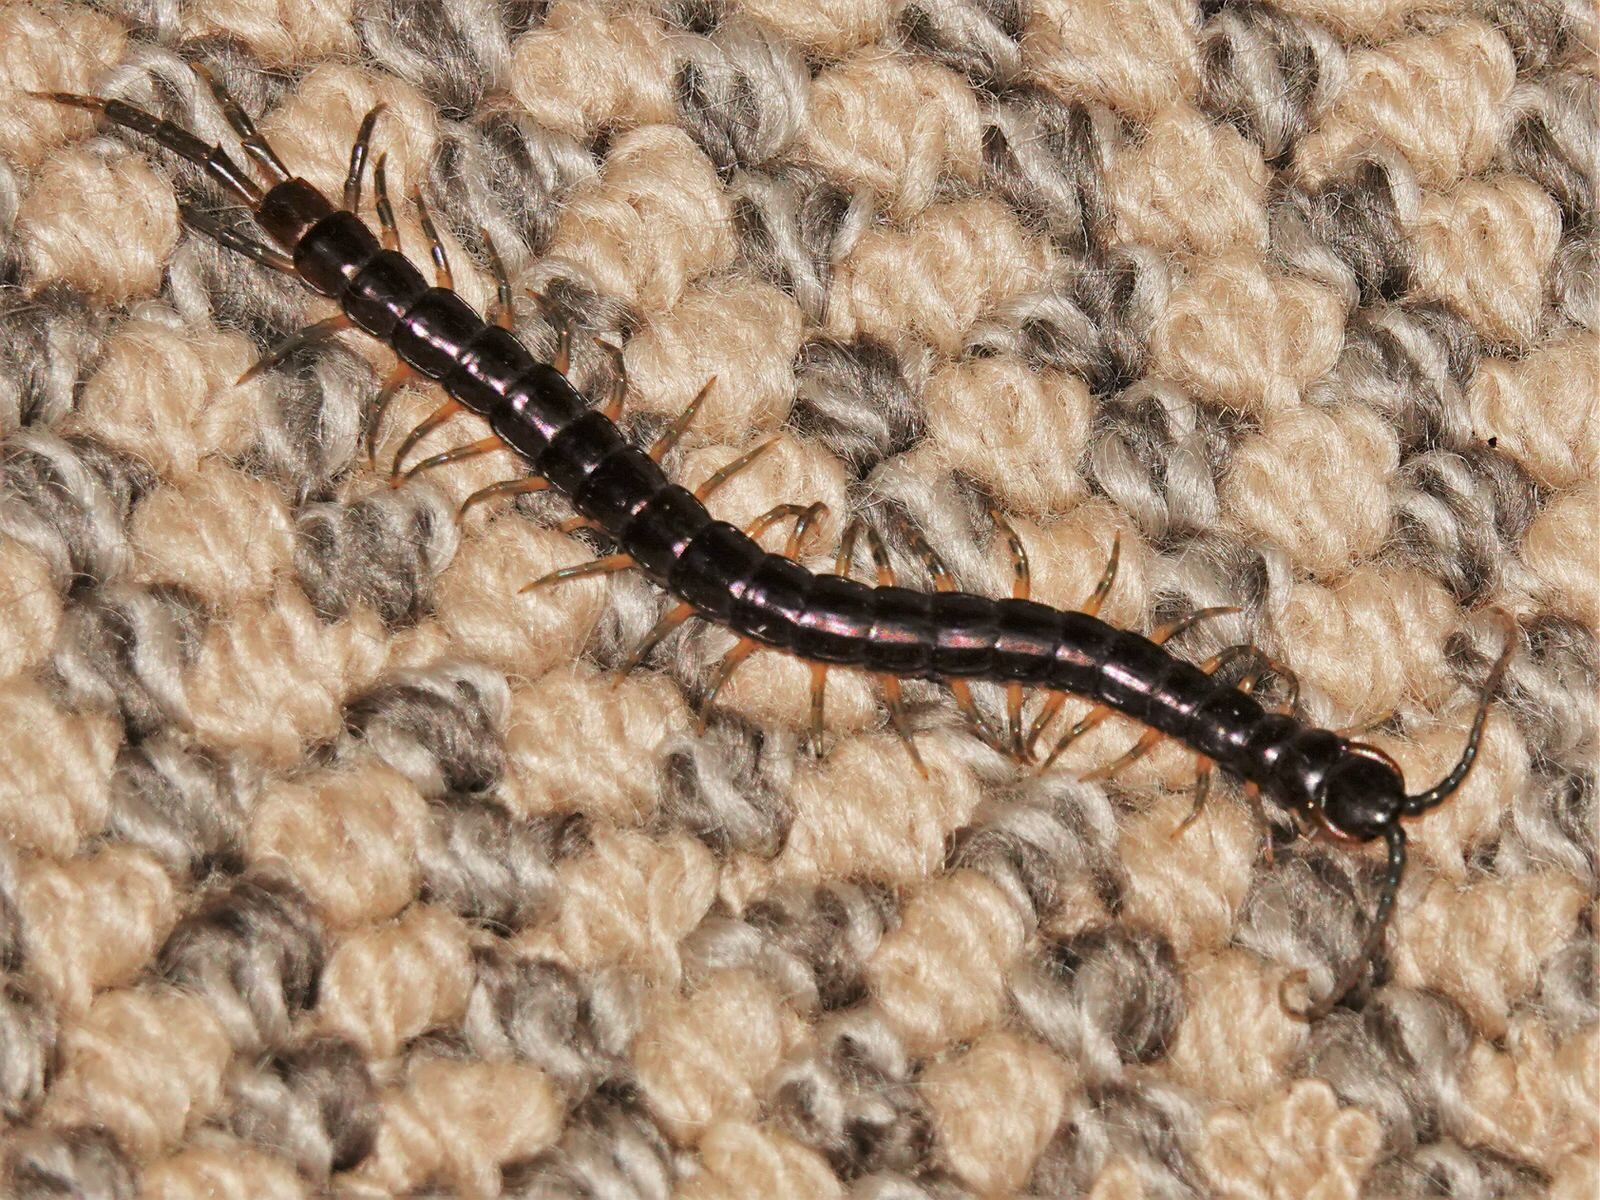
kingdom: Animalia
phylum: Arthropoda
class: Chilopoda
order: Scolopendromorpha
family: Scolopendridae
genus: Cormocephalus
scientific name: Cormocephalus rubriceps
